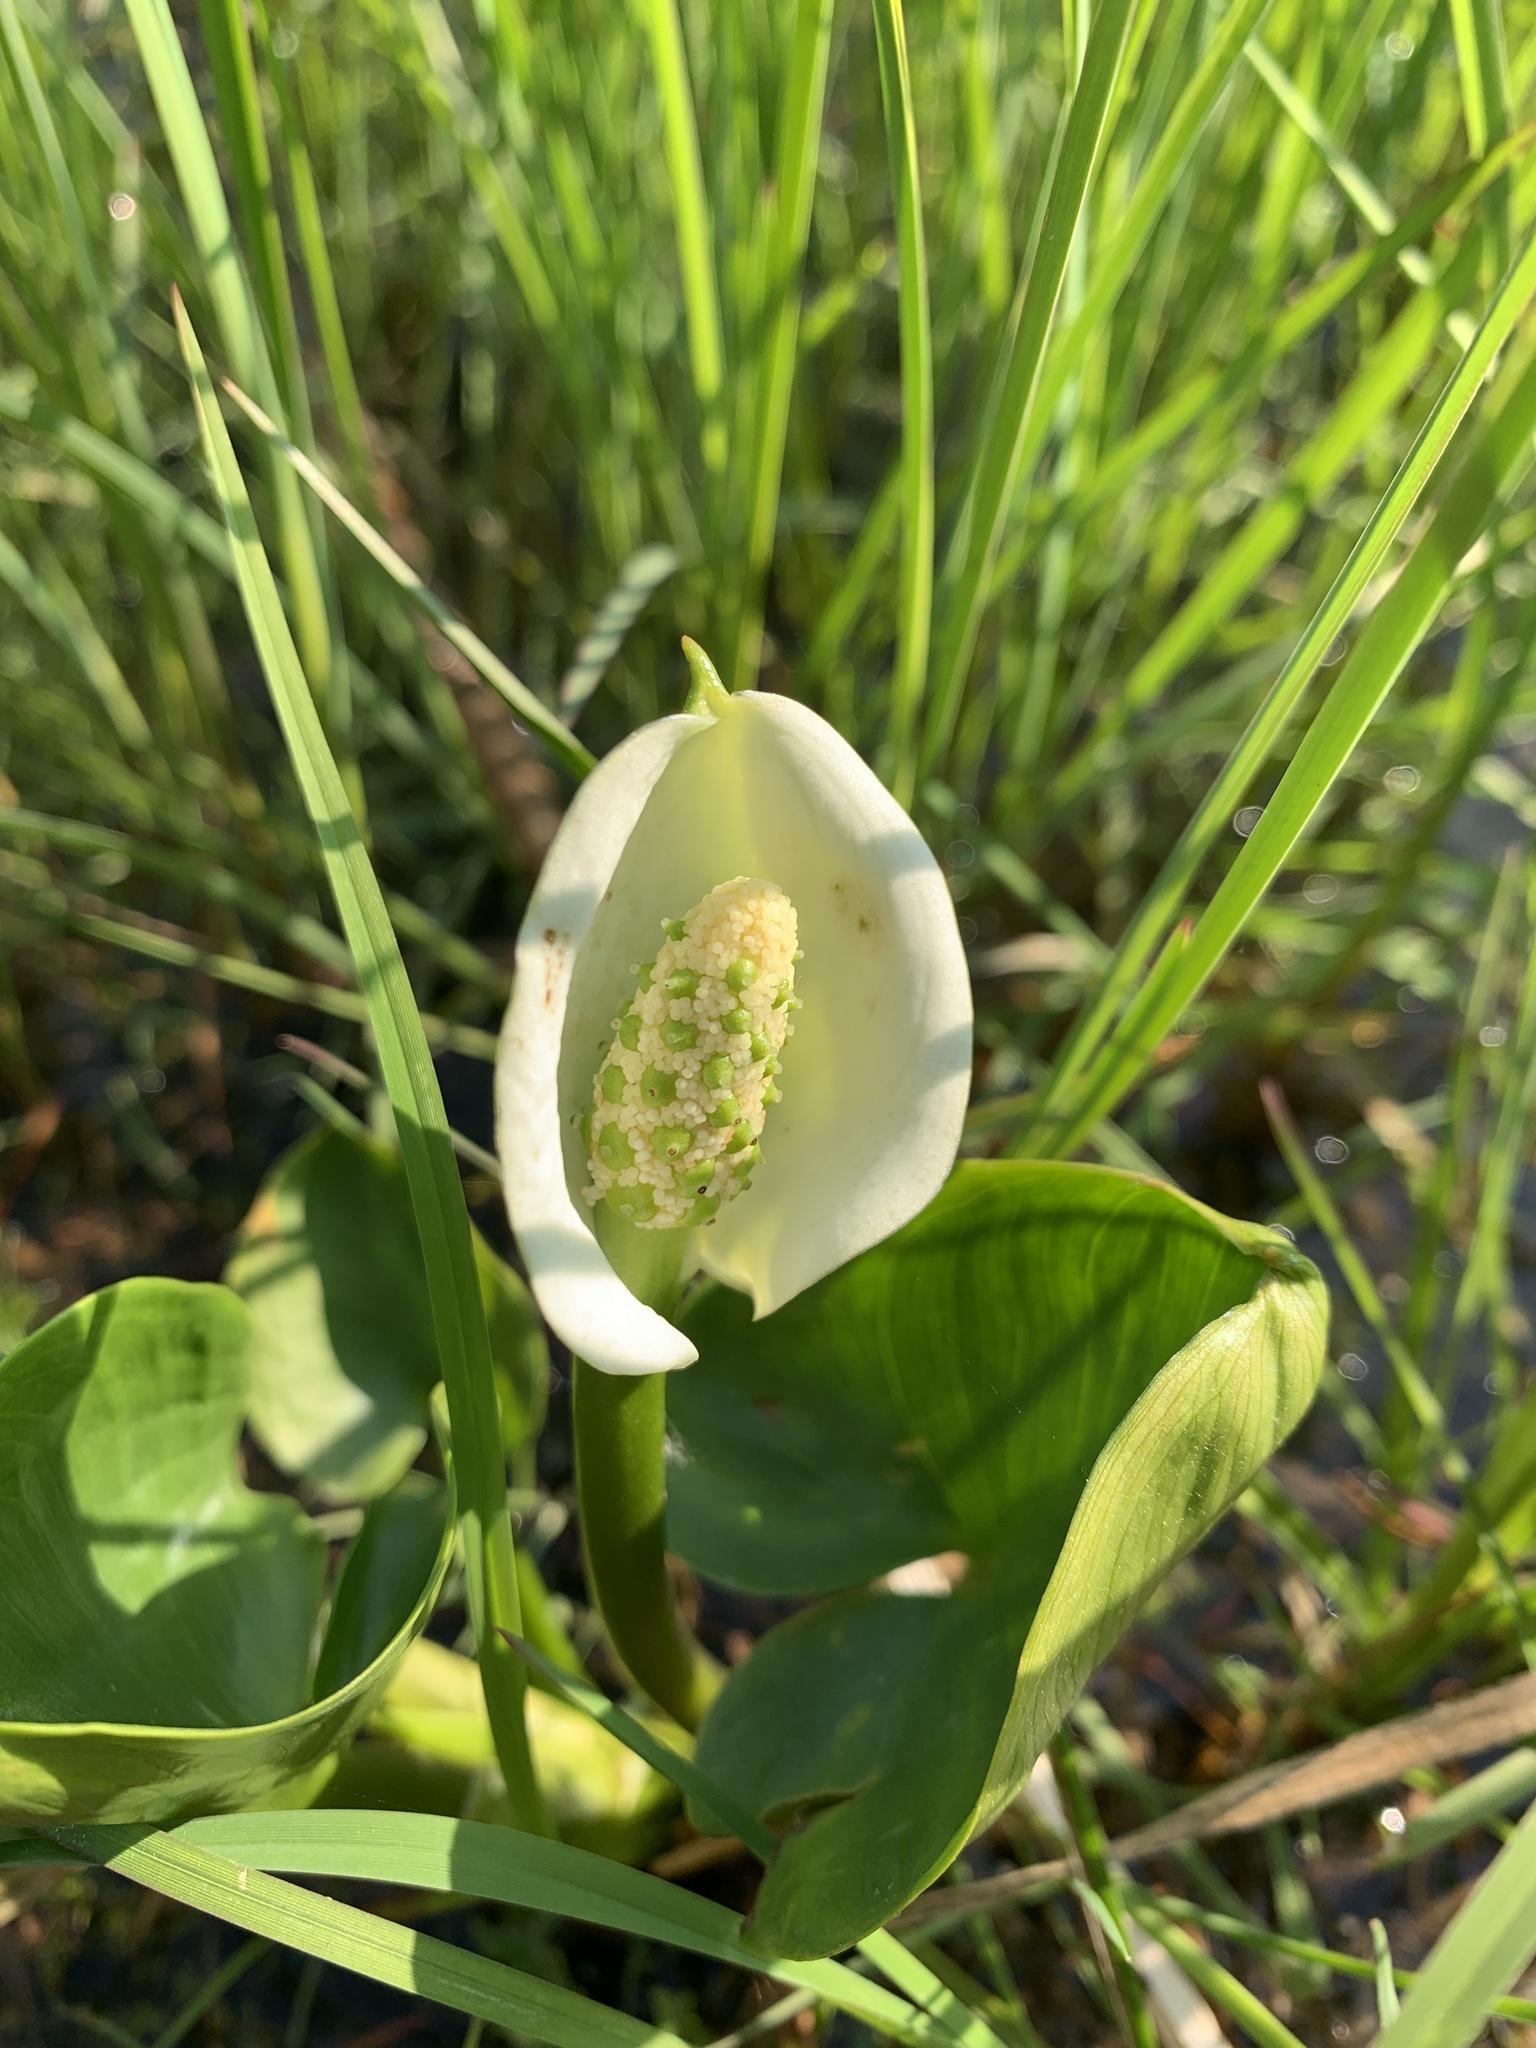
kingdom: Plantae
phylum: Tracheophyta
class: Liliopsida
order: Alismatales
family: Araceae
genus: Calla
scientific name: Calla palustris
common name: Bog arum
